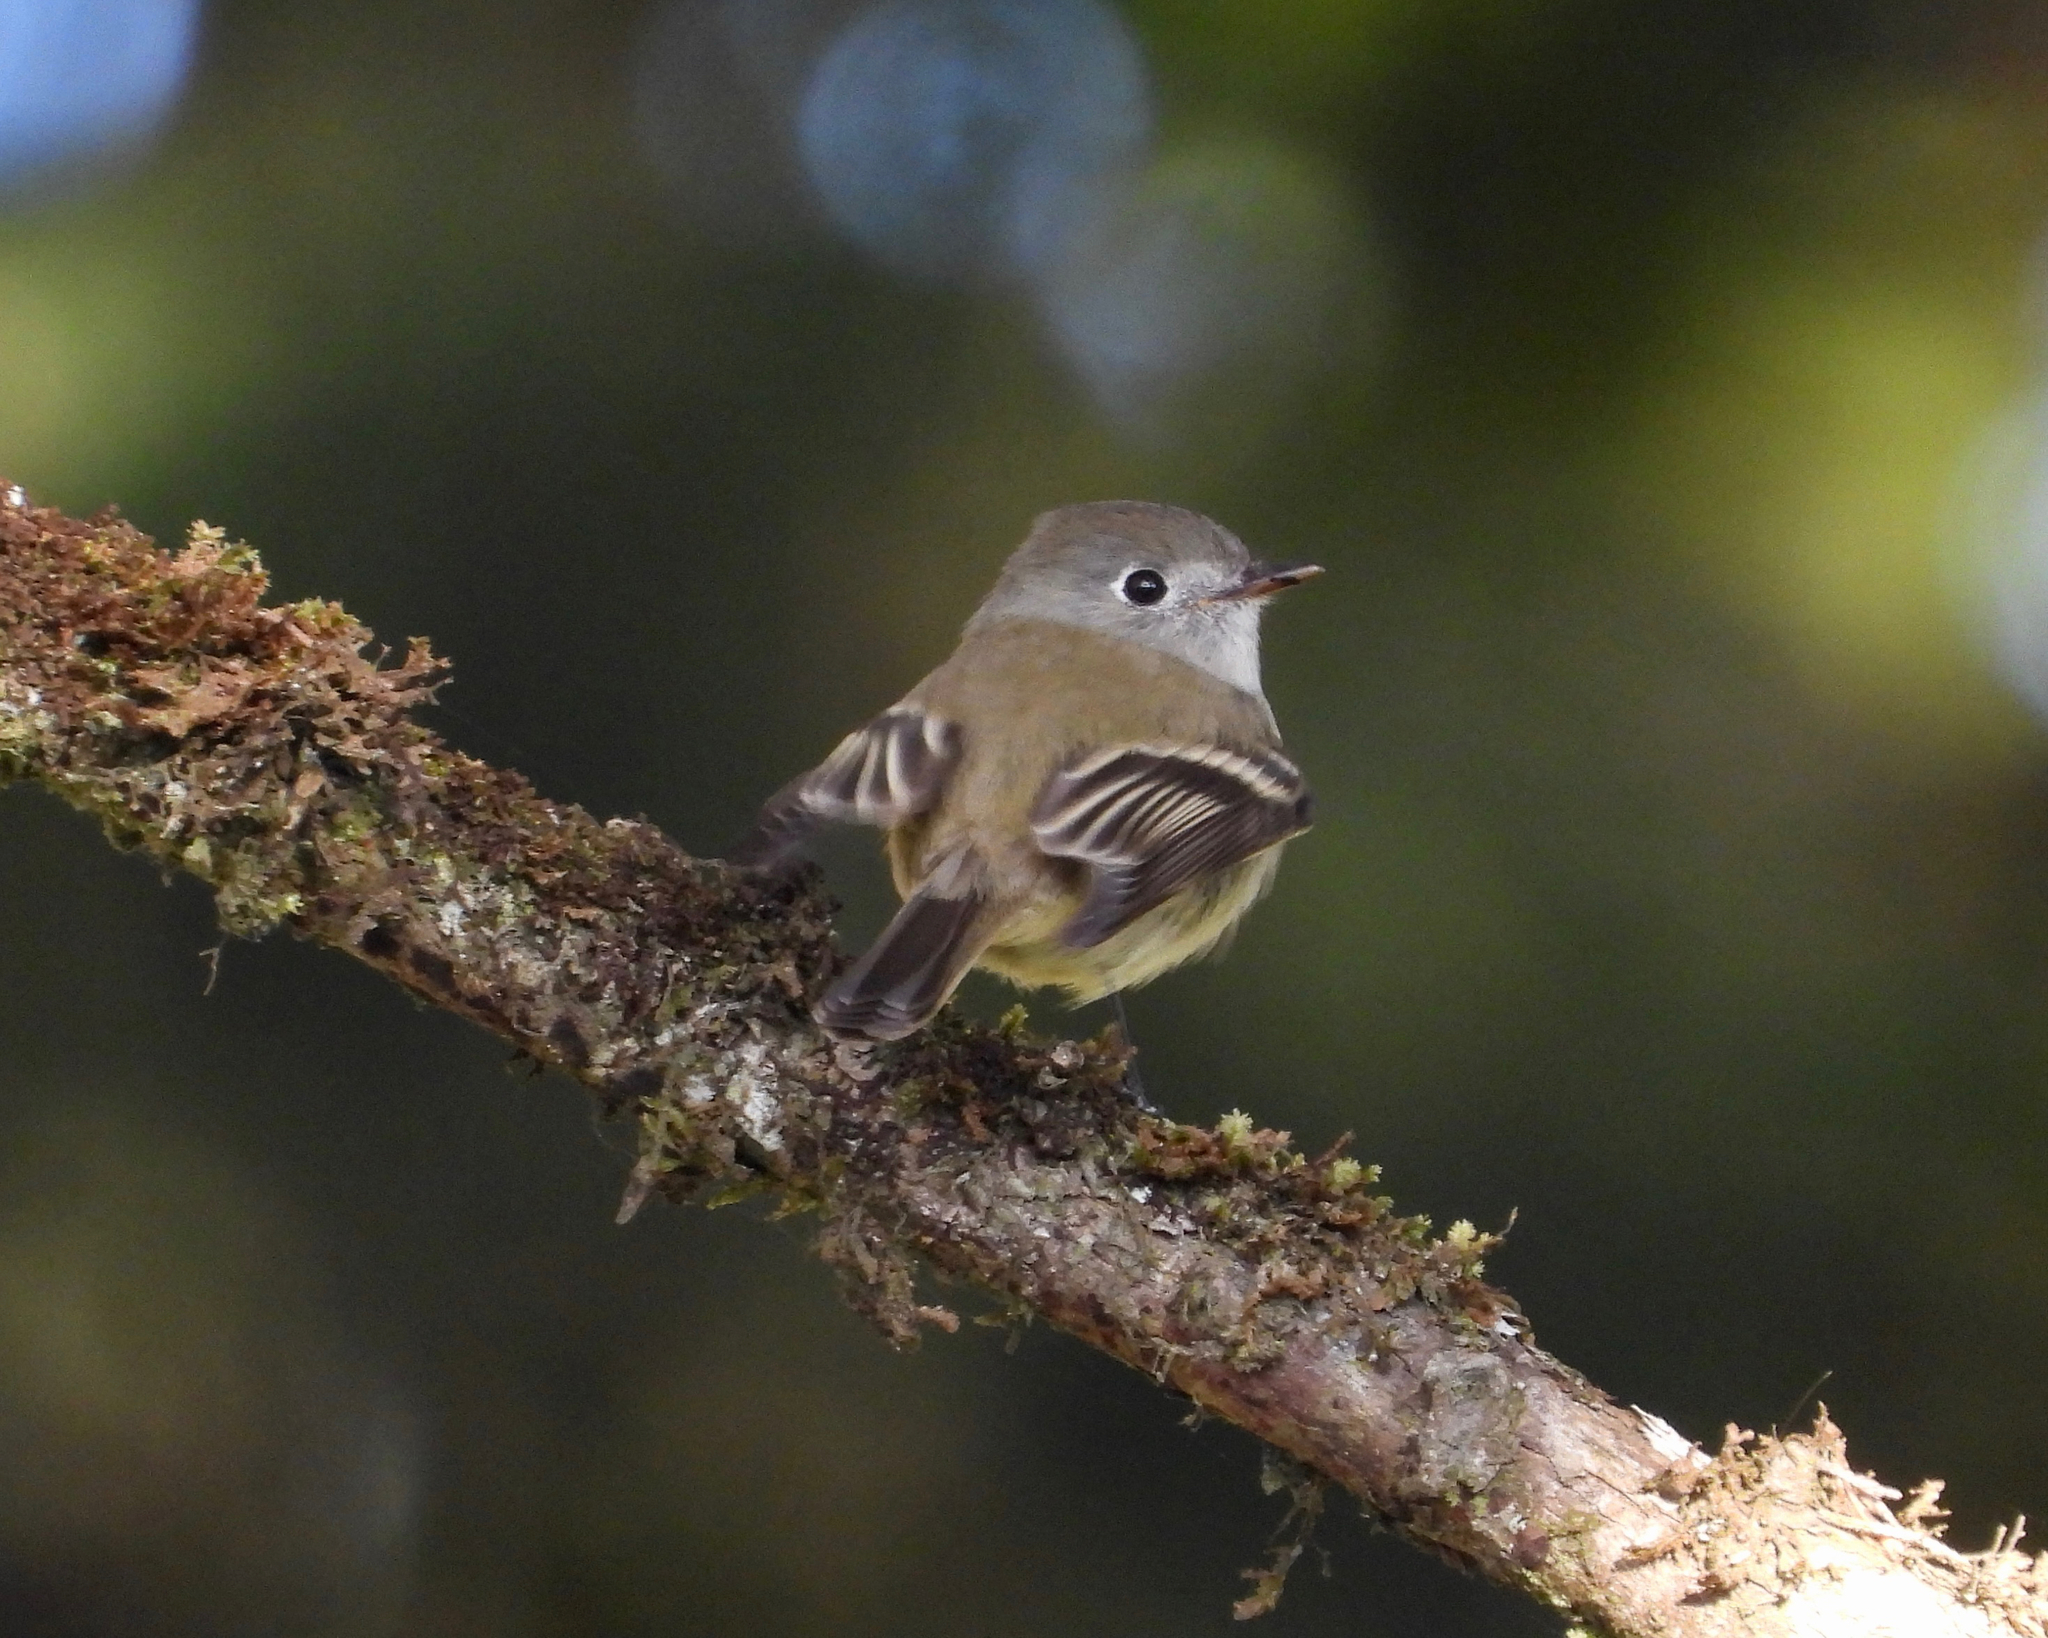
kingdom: Animalia
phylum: Chordata
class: Aves
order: Passeriformes
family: Tyrannidae
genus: Empidonax
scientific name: Empidonax hammondii
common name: Hammond's flycatcher
